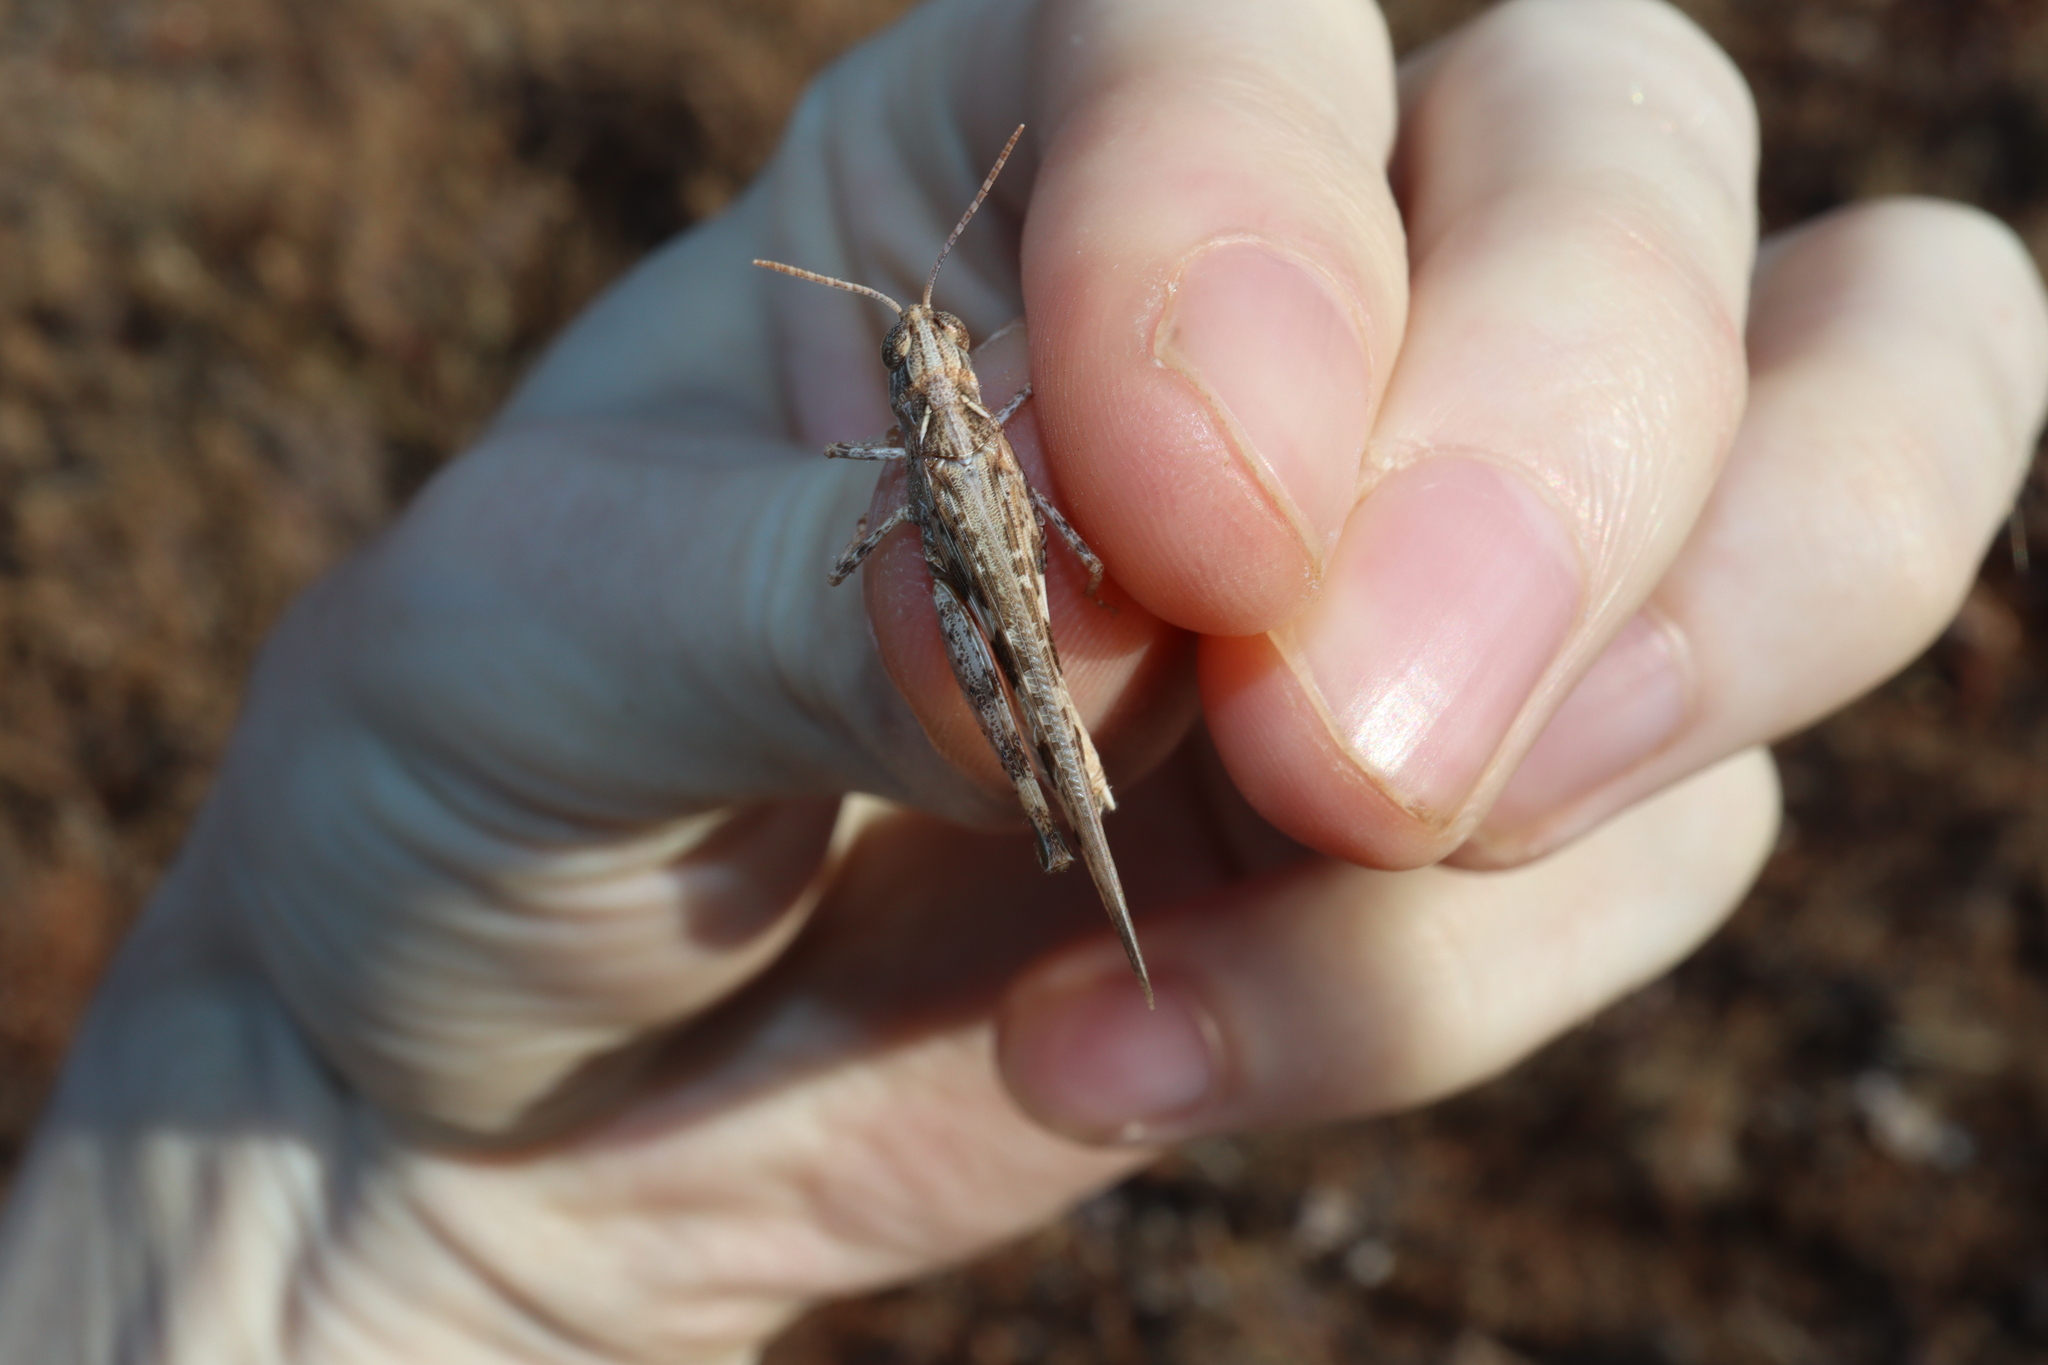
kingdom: Animalia
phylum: Arthropoda
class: Insecta
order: Orthoptera
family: Acrididae
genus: Chortoicetes
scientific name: Chortoicetes terminifera
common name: Australian plague locust
